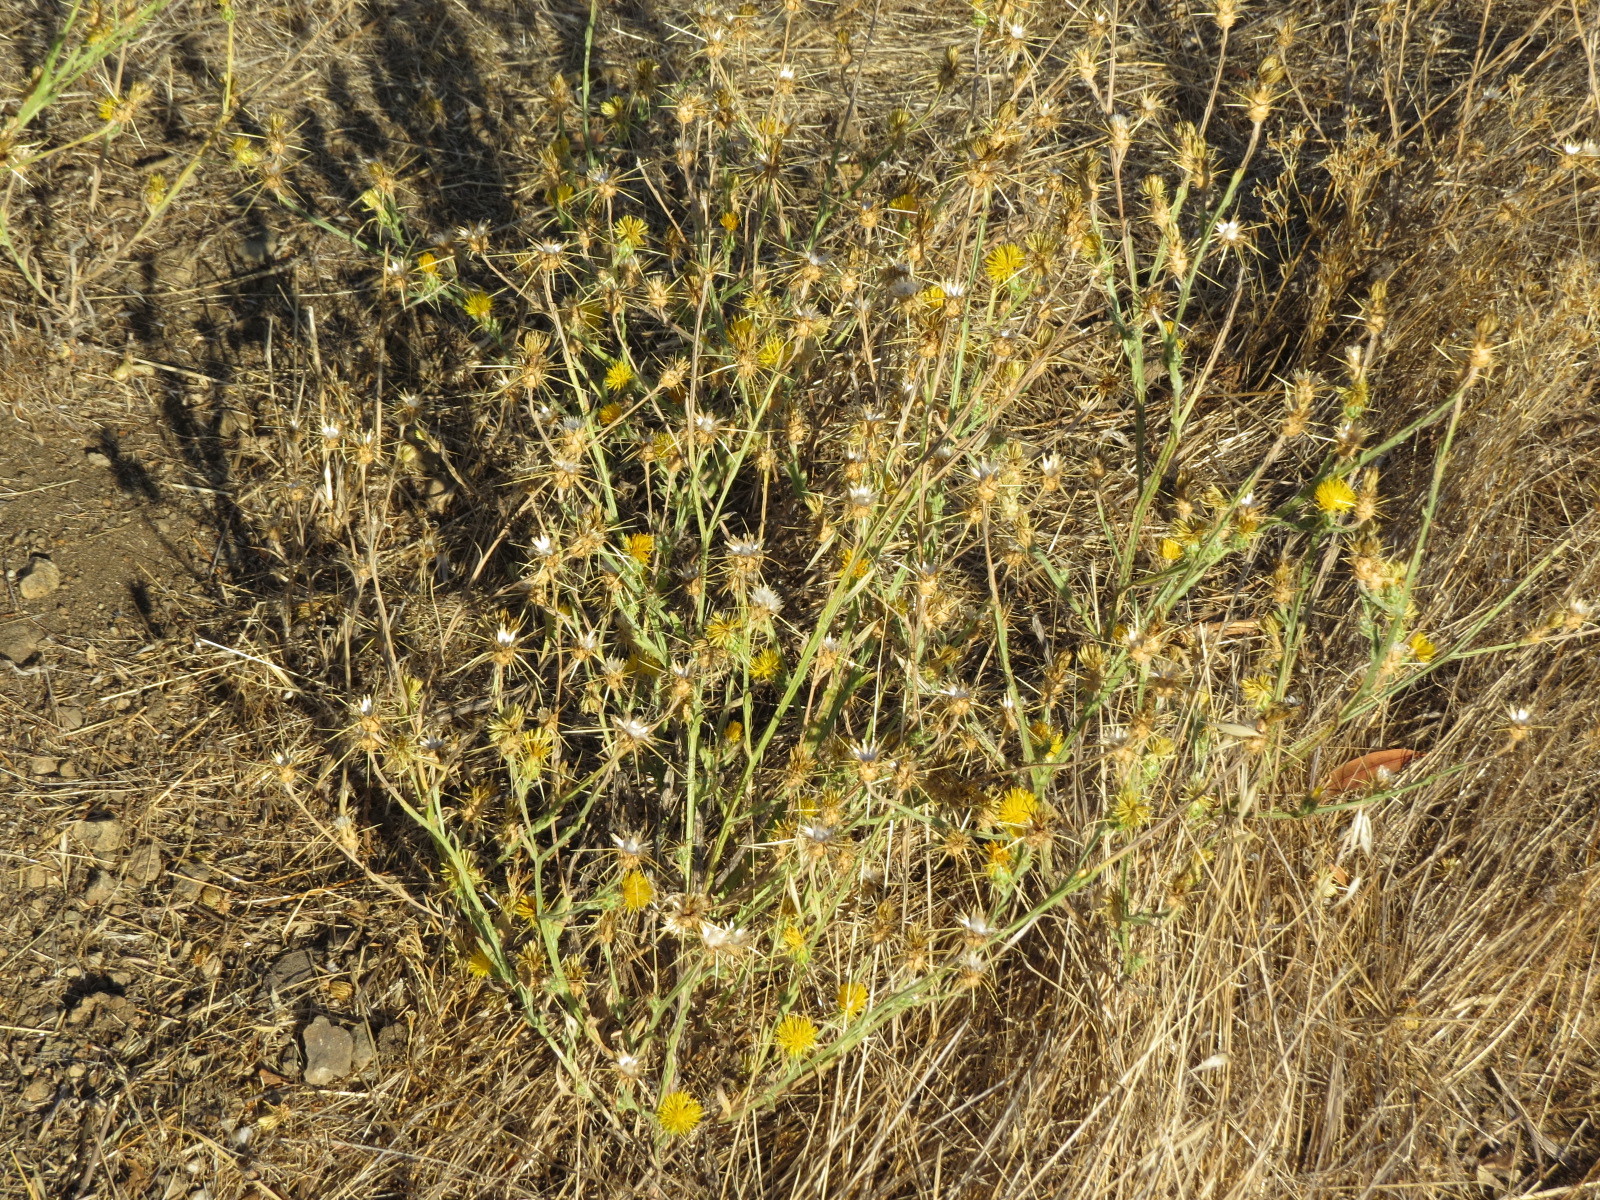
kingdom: Plantae
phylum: Tracheophyta
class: Magnoliopsida
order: Asterales
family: Asteraceae
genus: Centaurea
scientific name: Centaurea solstitialis
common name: Yellow star-thistle
